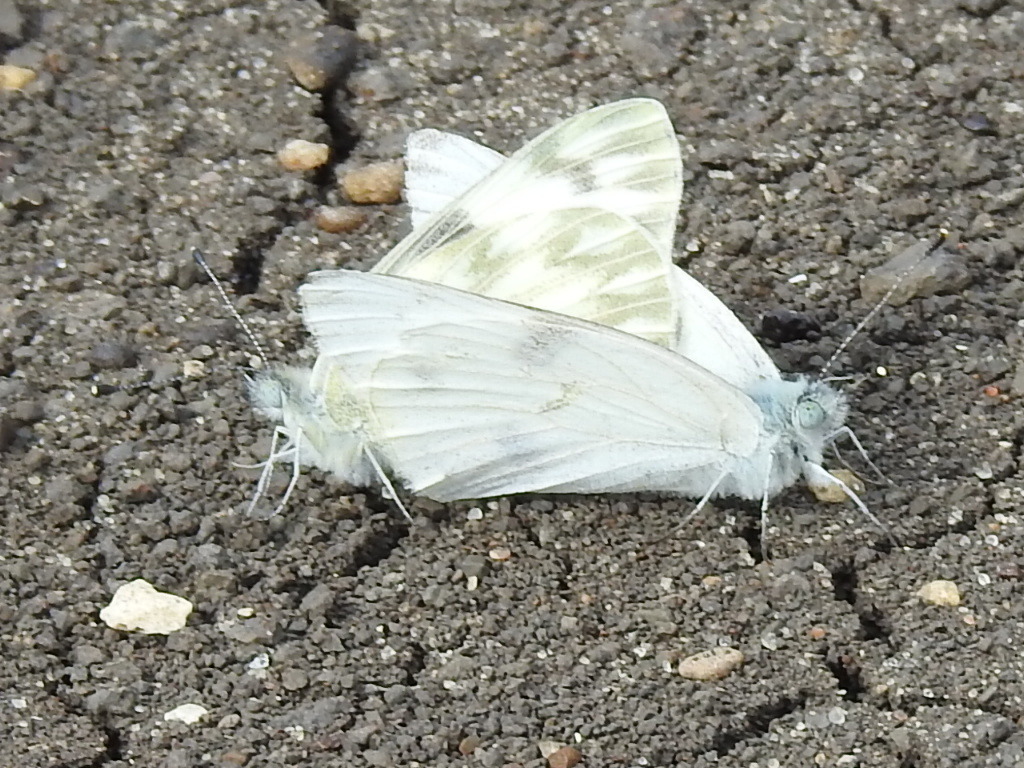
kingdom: Animalia
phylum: Arthropoda
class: Insecta
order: Lepidoptera
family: Pieridae
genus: Pontia
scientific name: Pontia protodice
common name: Checkered white
